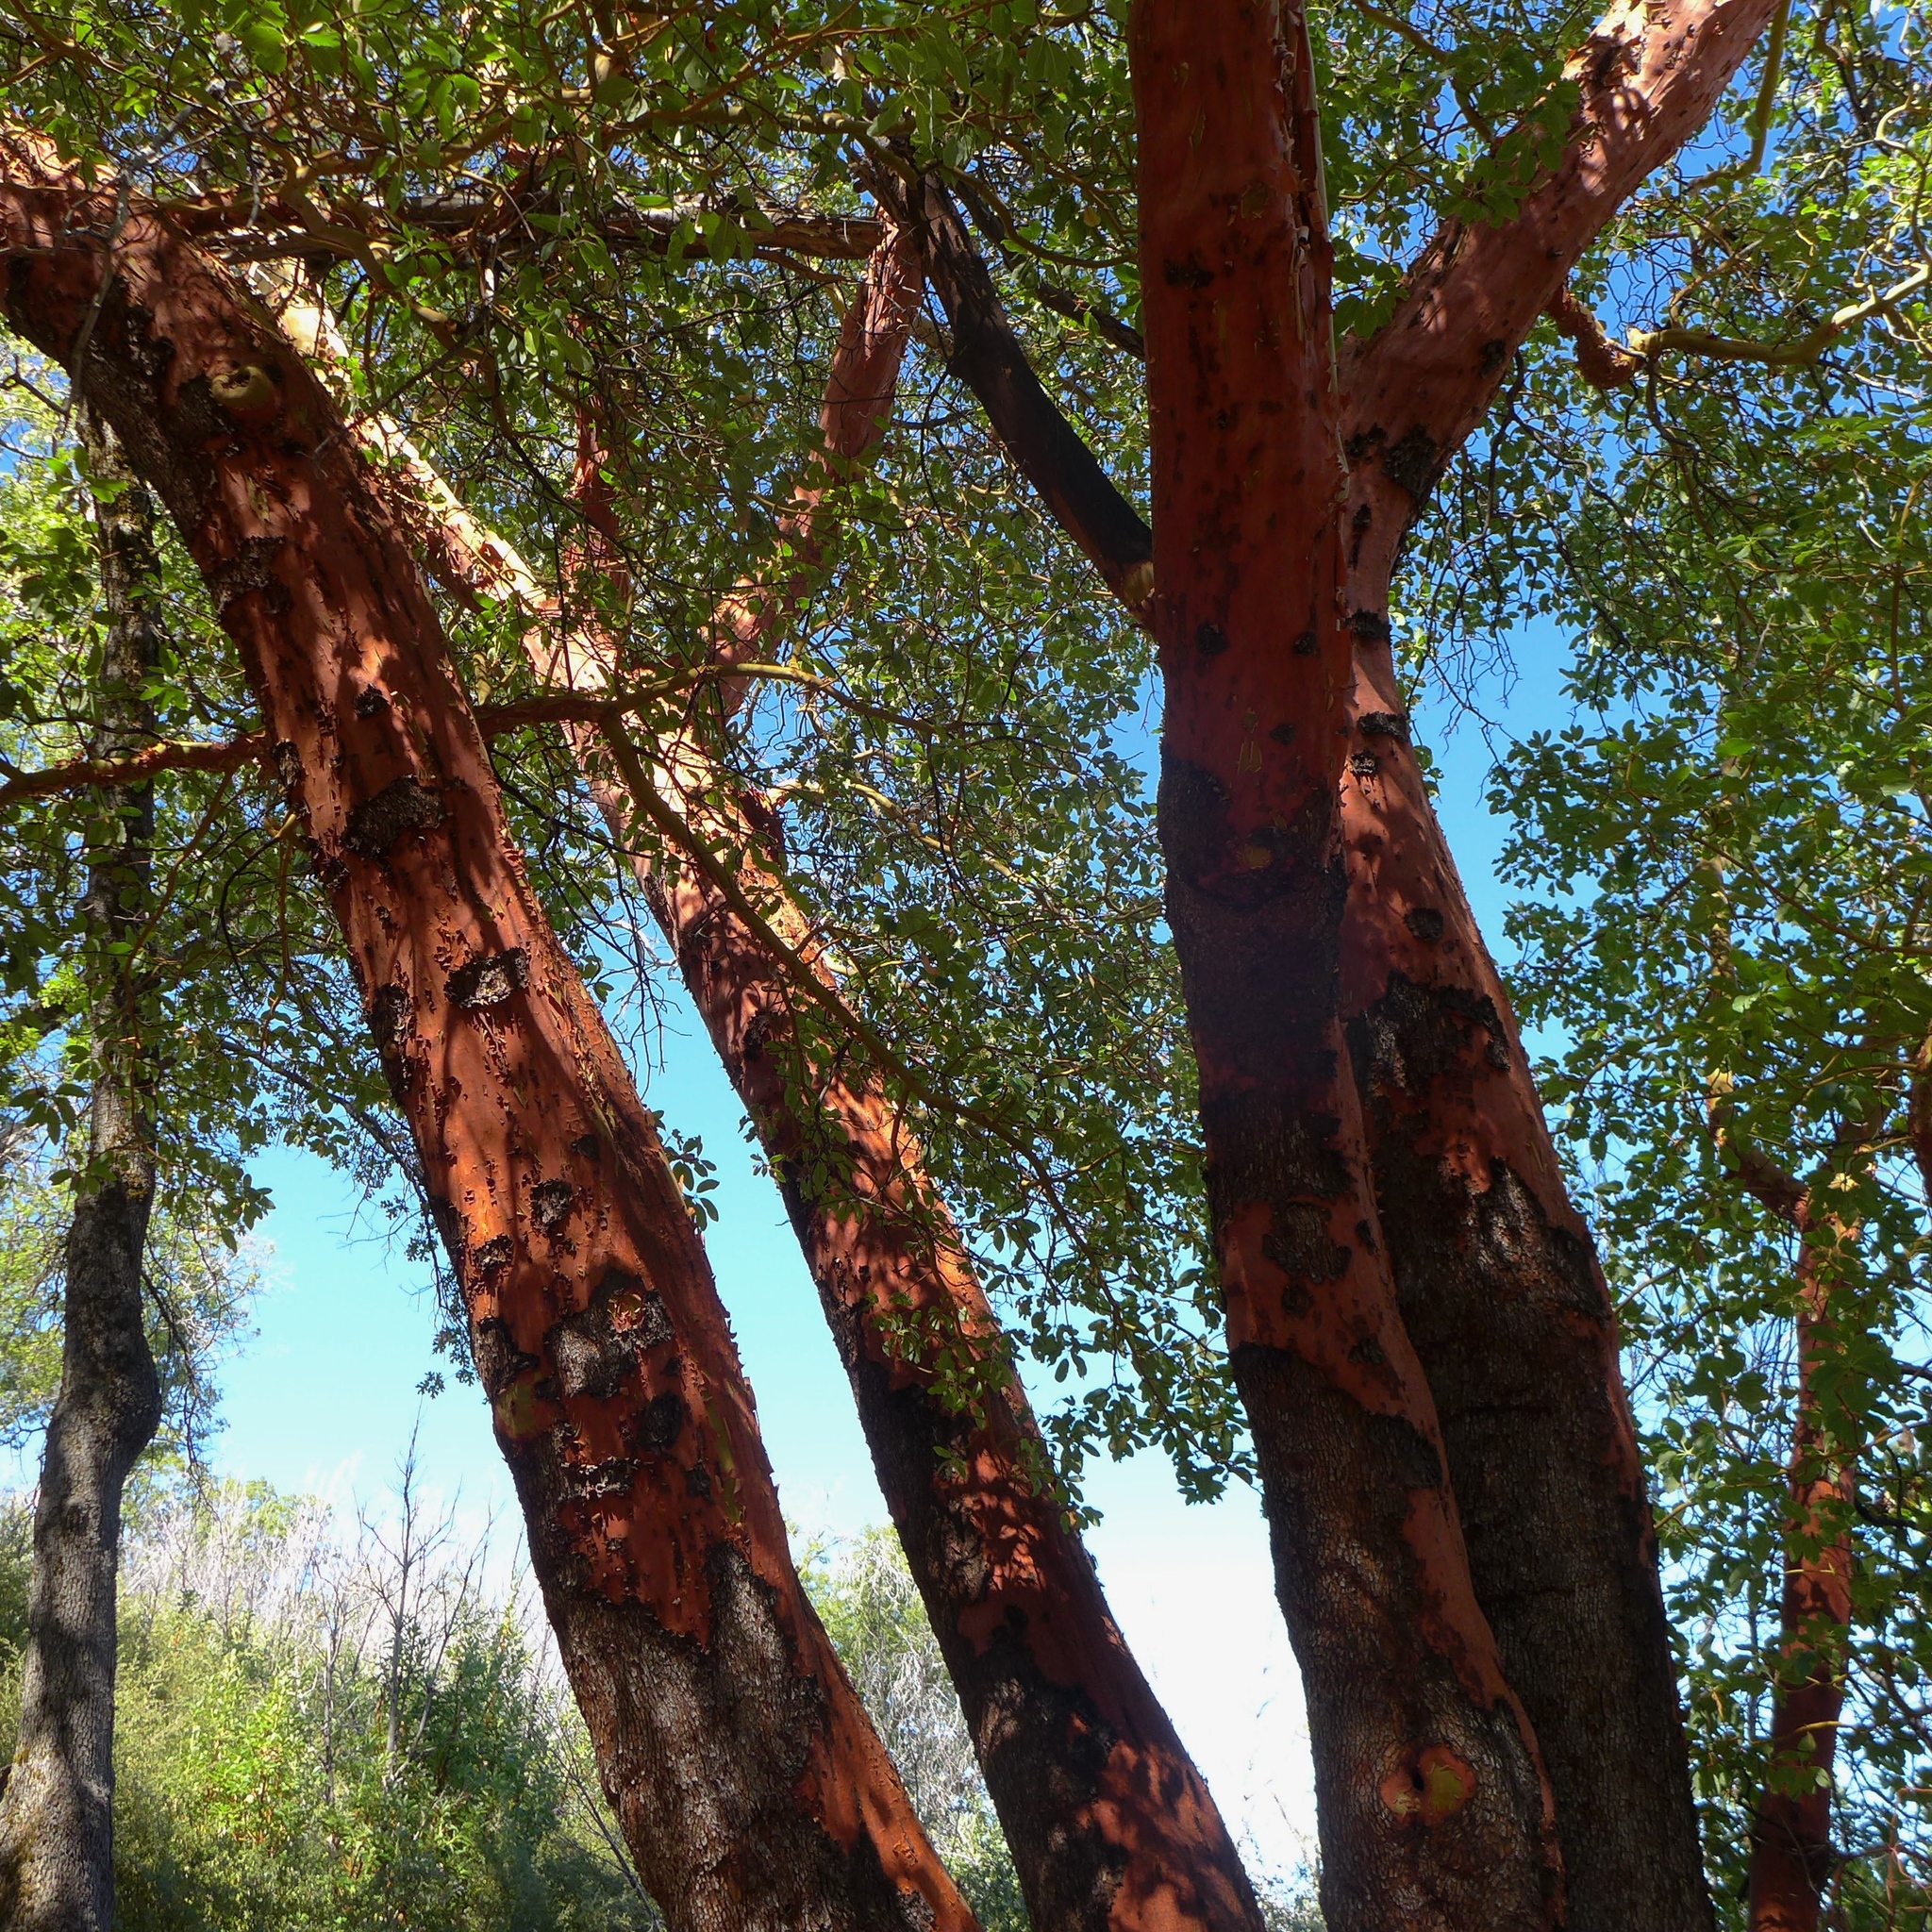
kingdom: Plantae
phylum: Tracheophyta
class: Magnoliopsida
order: Ericales
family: Ericaceae
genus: Arbutus
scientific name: Arbutus menziesii
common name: Pacific madrone
